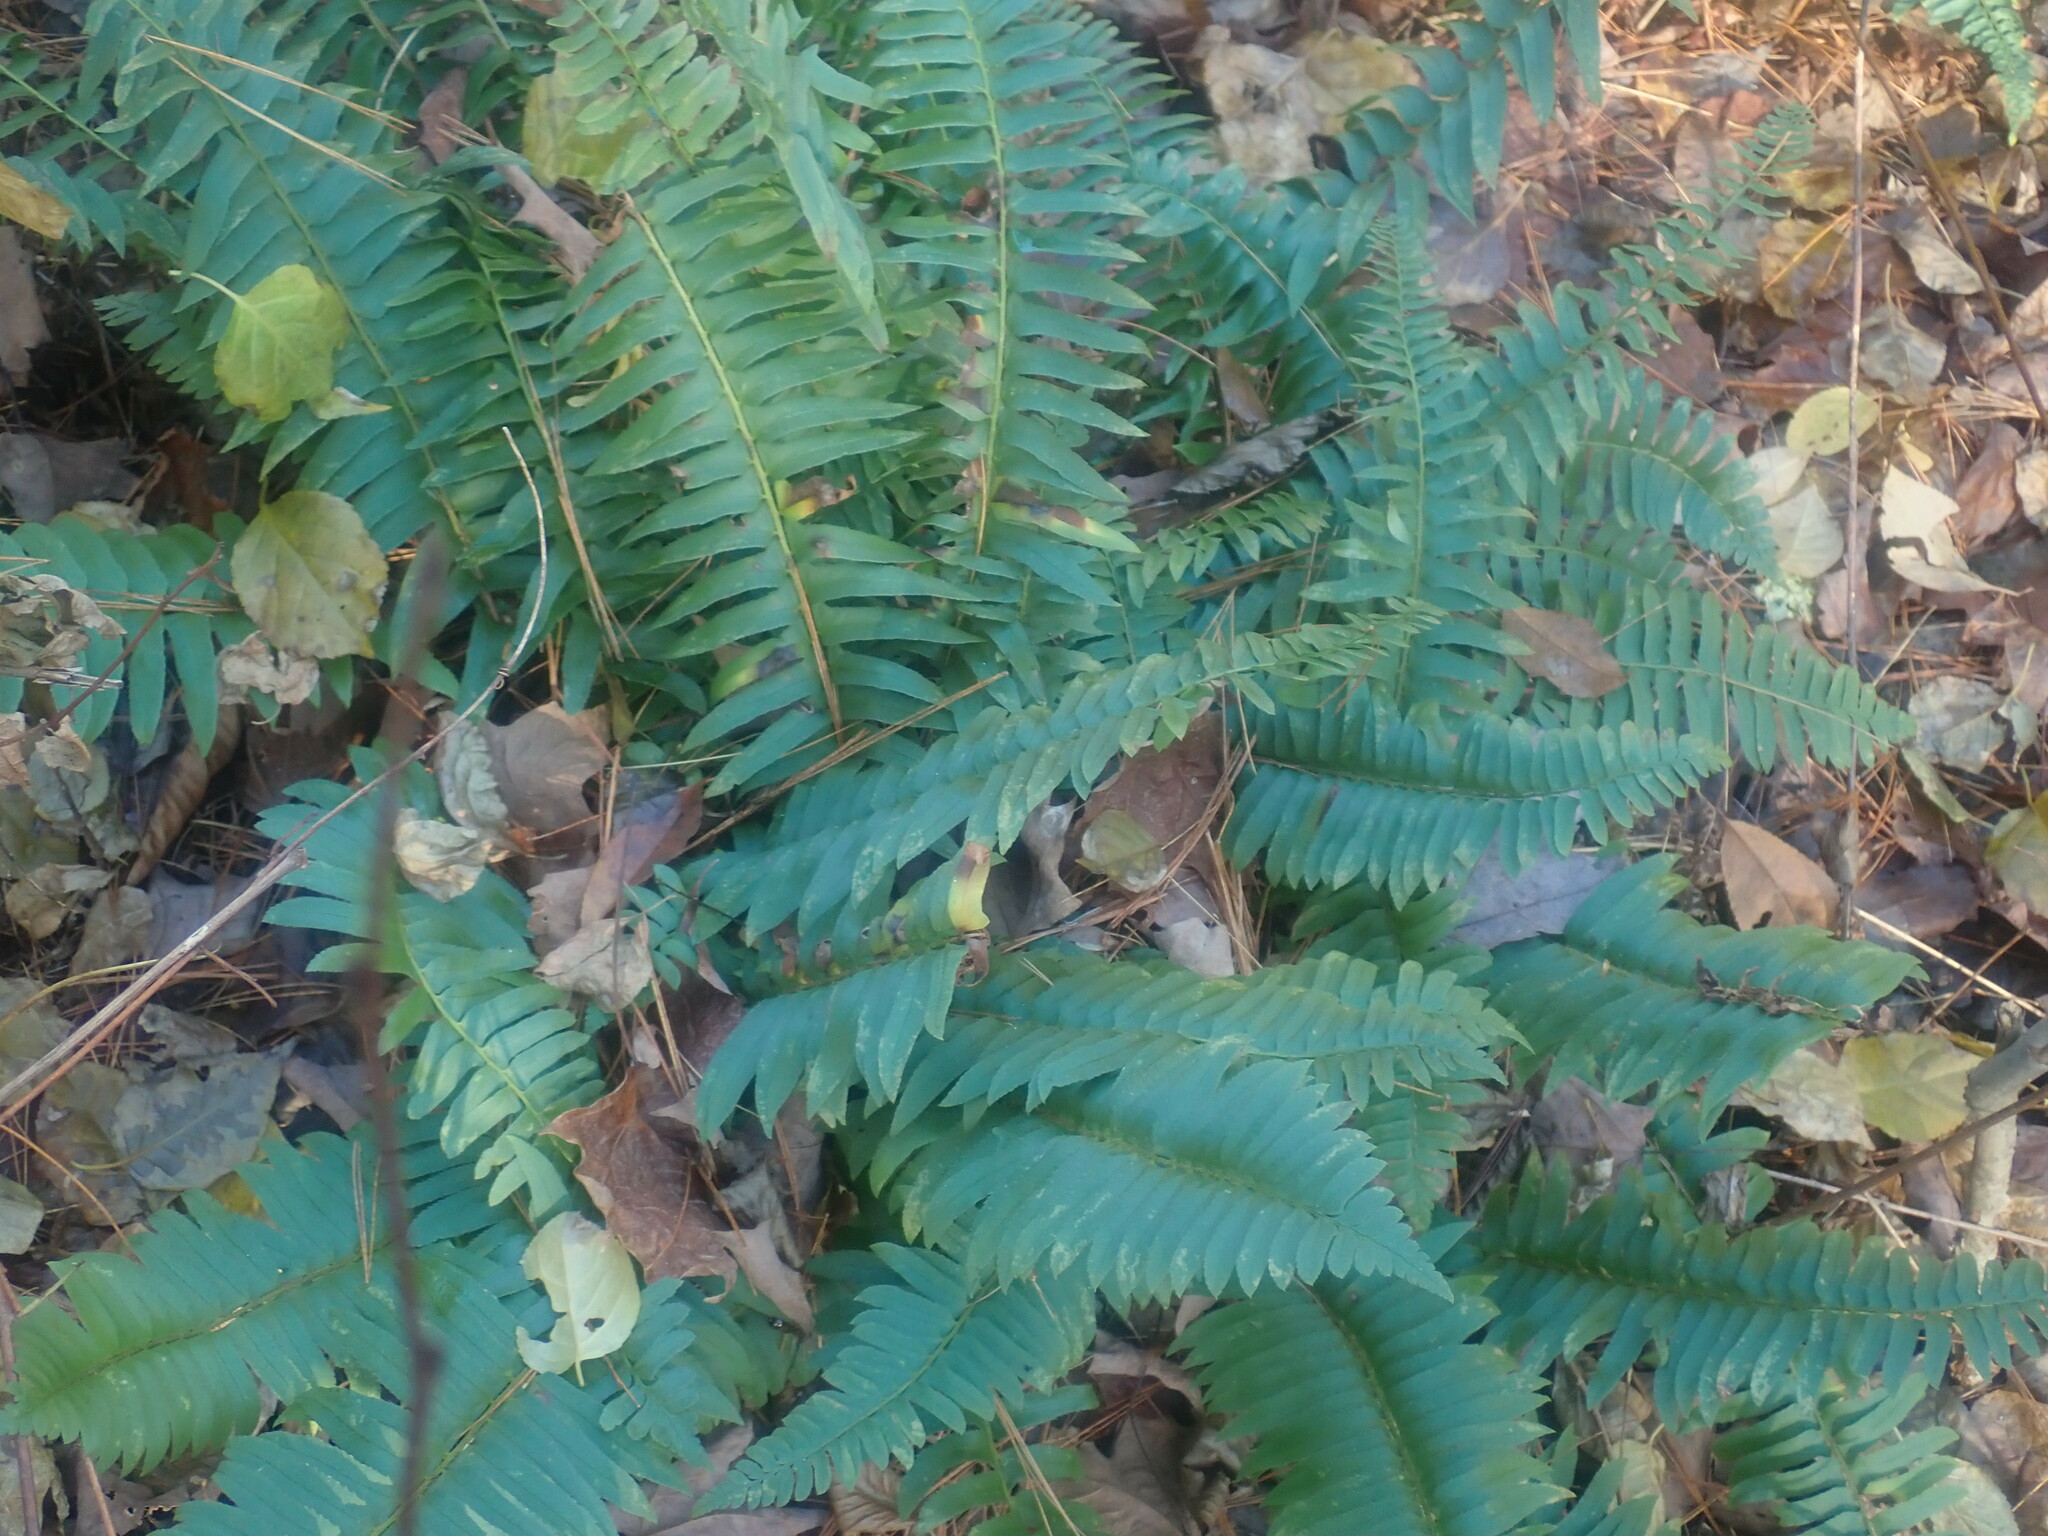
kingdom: Plantae
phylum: Tracheophyta
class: Polypodiopsida
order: Polypodiales
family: Dryopteridaceae
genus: Polystichum
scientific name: Polystichum acrostichoides
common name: Christmas fern
